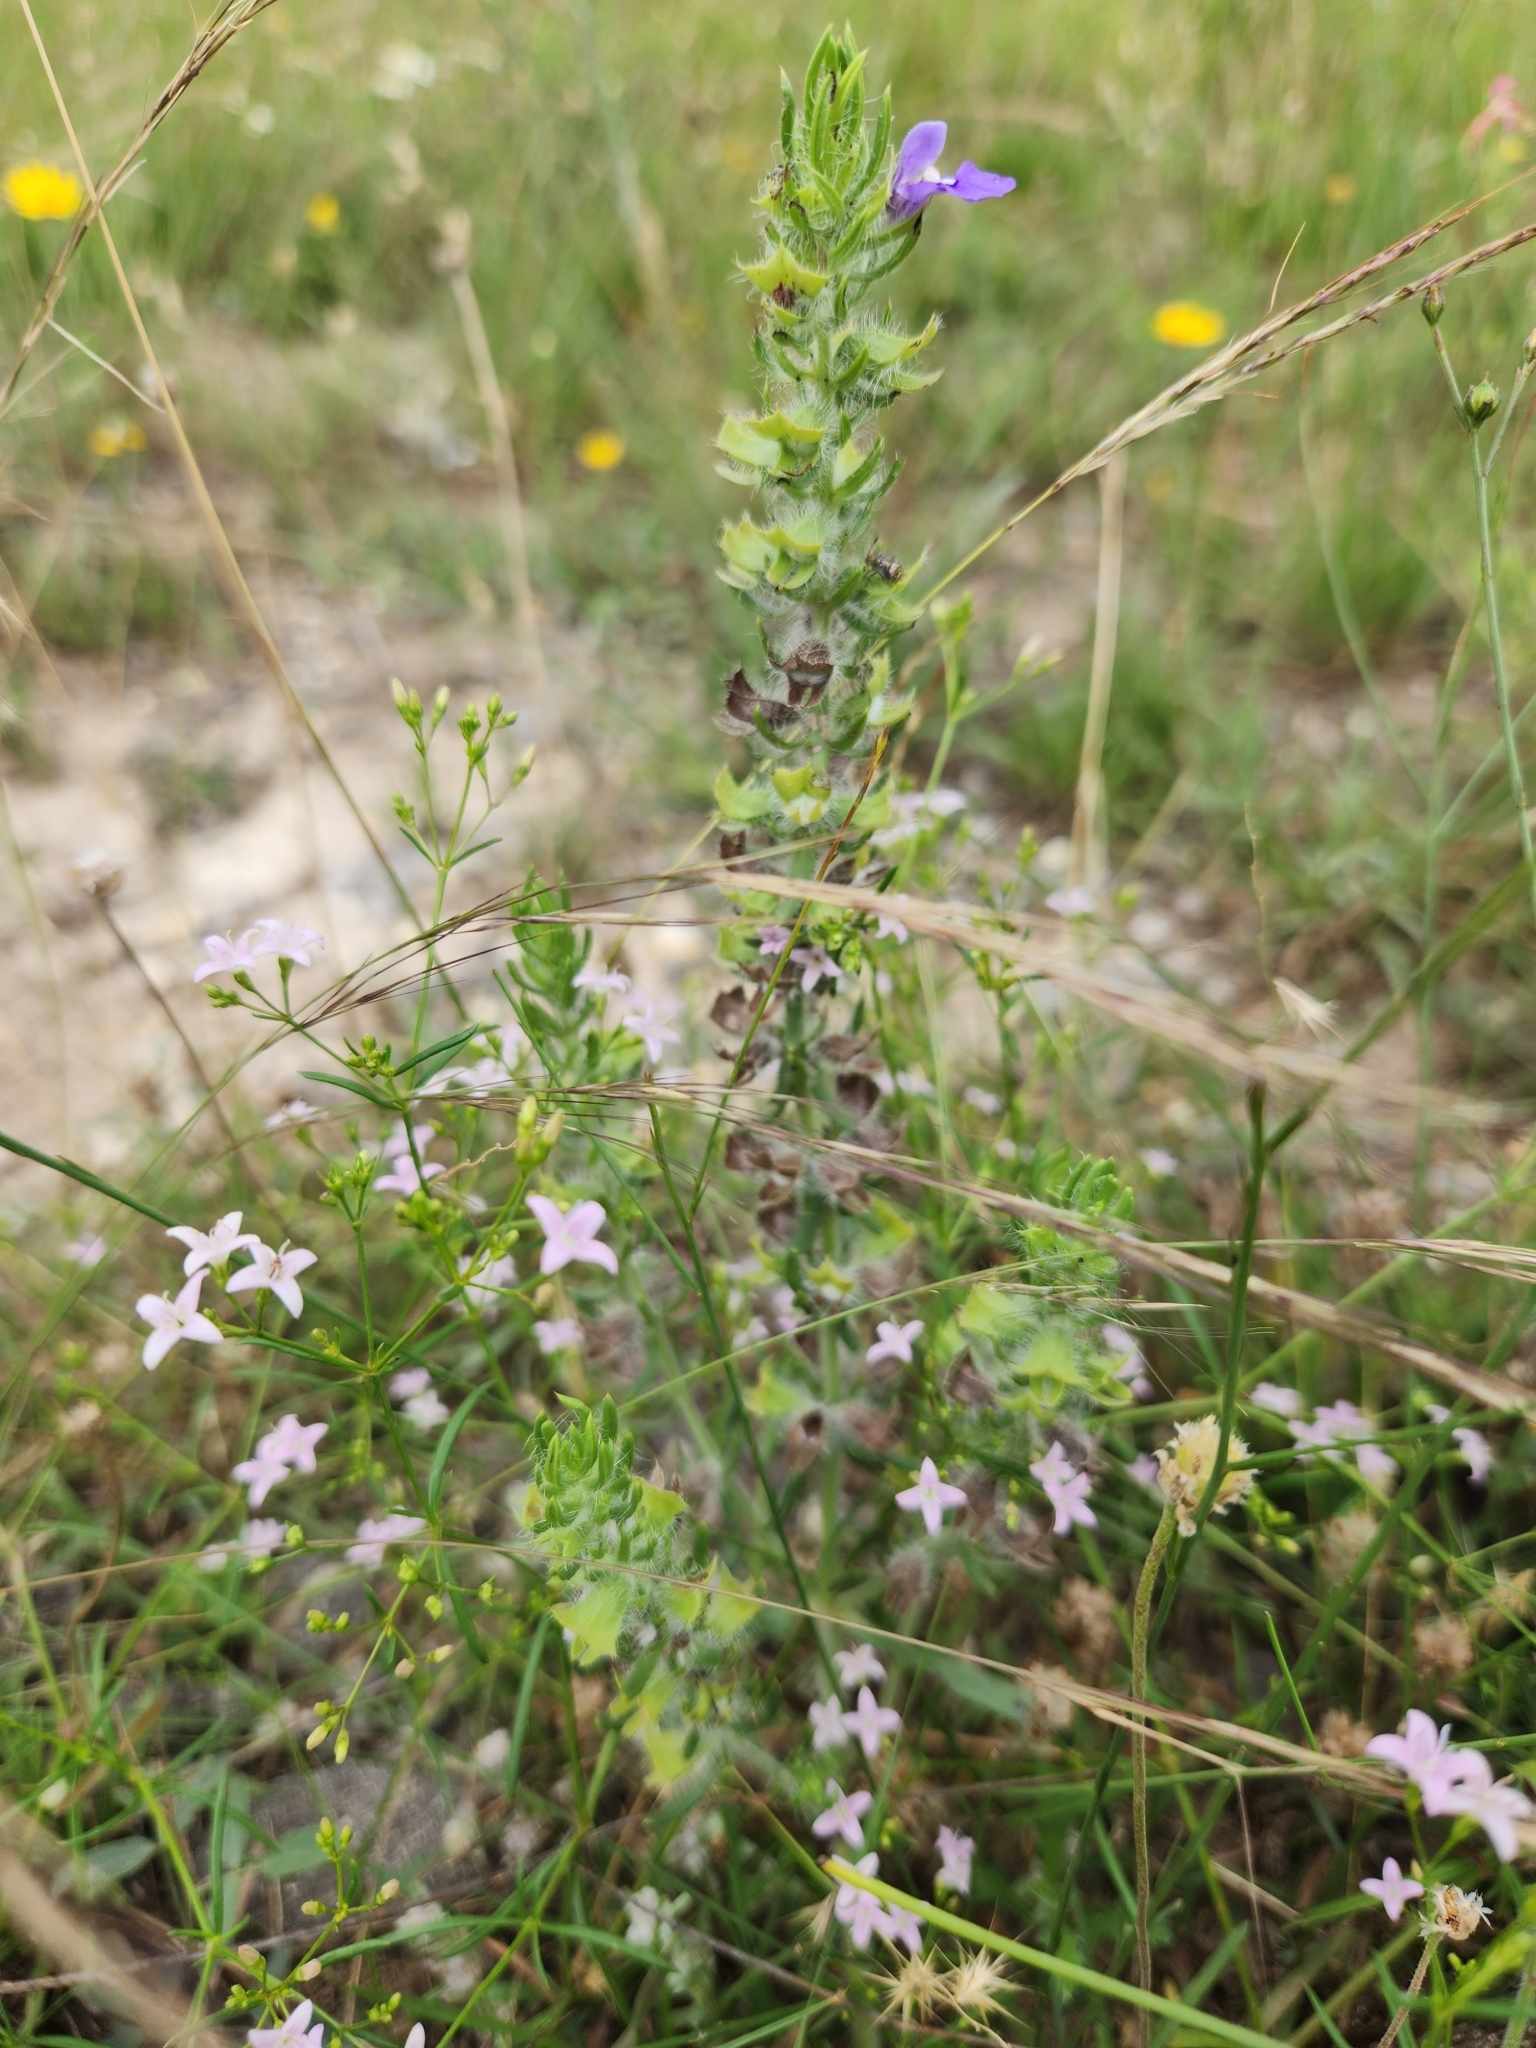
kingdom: Plantae
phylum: Tracheophyta
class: Magnoliopsida
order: Lamiales
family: Lamiaceae
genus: Salvia
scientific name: Salvia texana
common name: Texas sage
